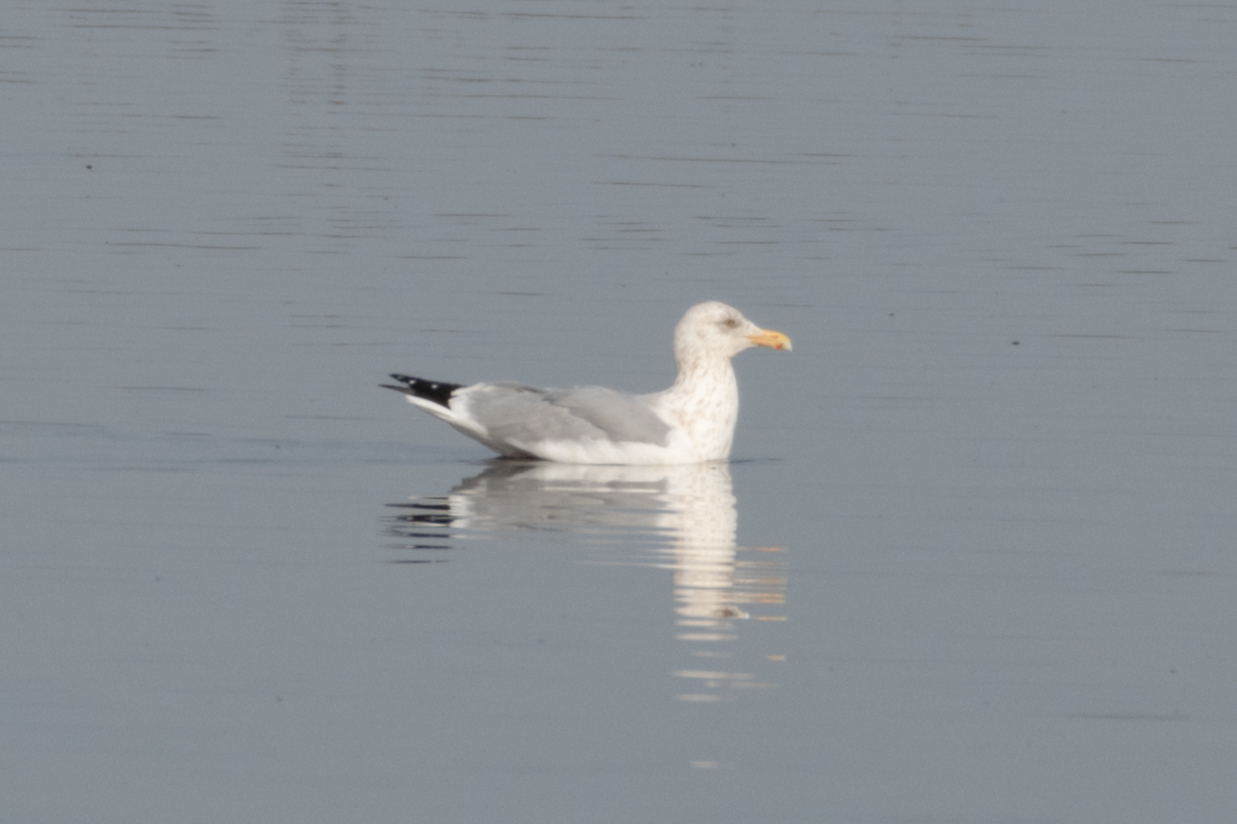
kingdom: Animalia
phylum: Chordata
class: Aves
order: Charadriiformes
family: Laridae
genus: Larus
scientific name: Larus argentatus
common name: Herring gull
